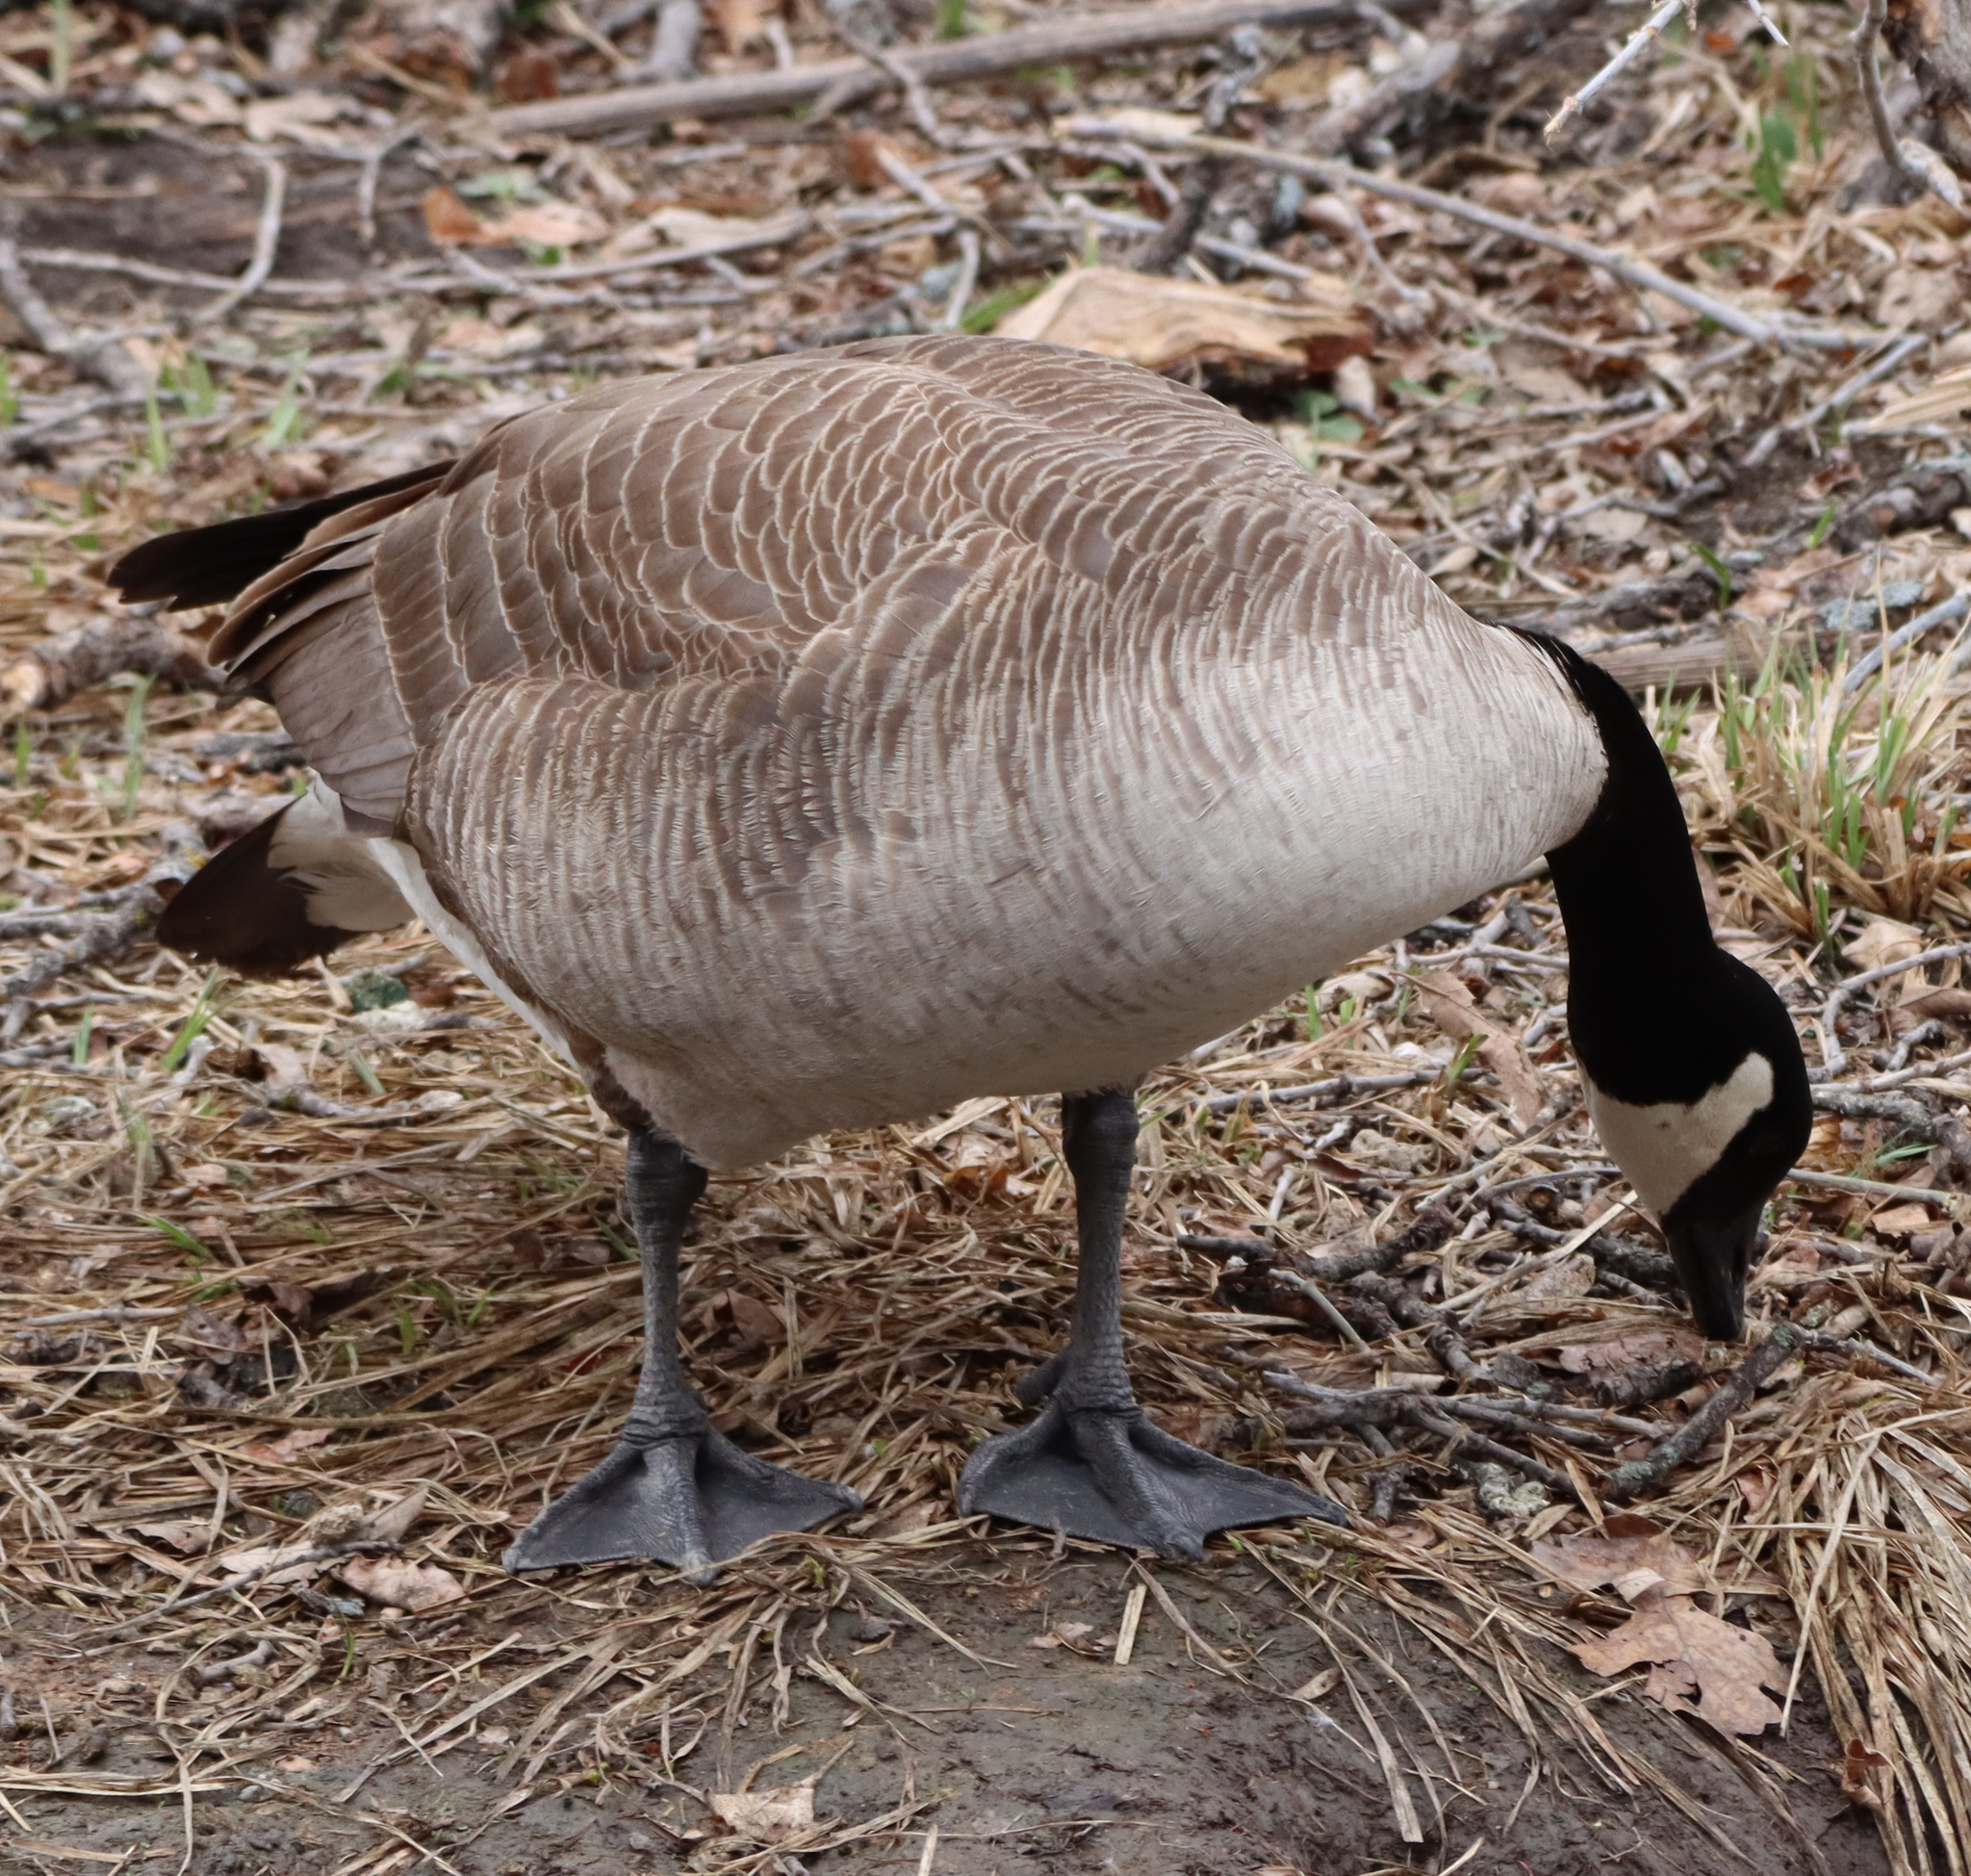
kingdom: Animalia
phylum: Chordata
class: Aves
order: Anseriformes
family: Anatidae
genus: Branta
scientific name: Branta canadensis
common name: Canada goose
